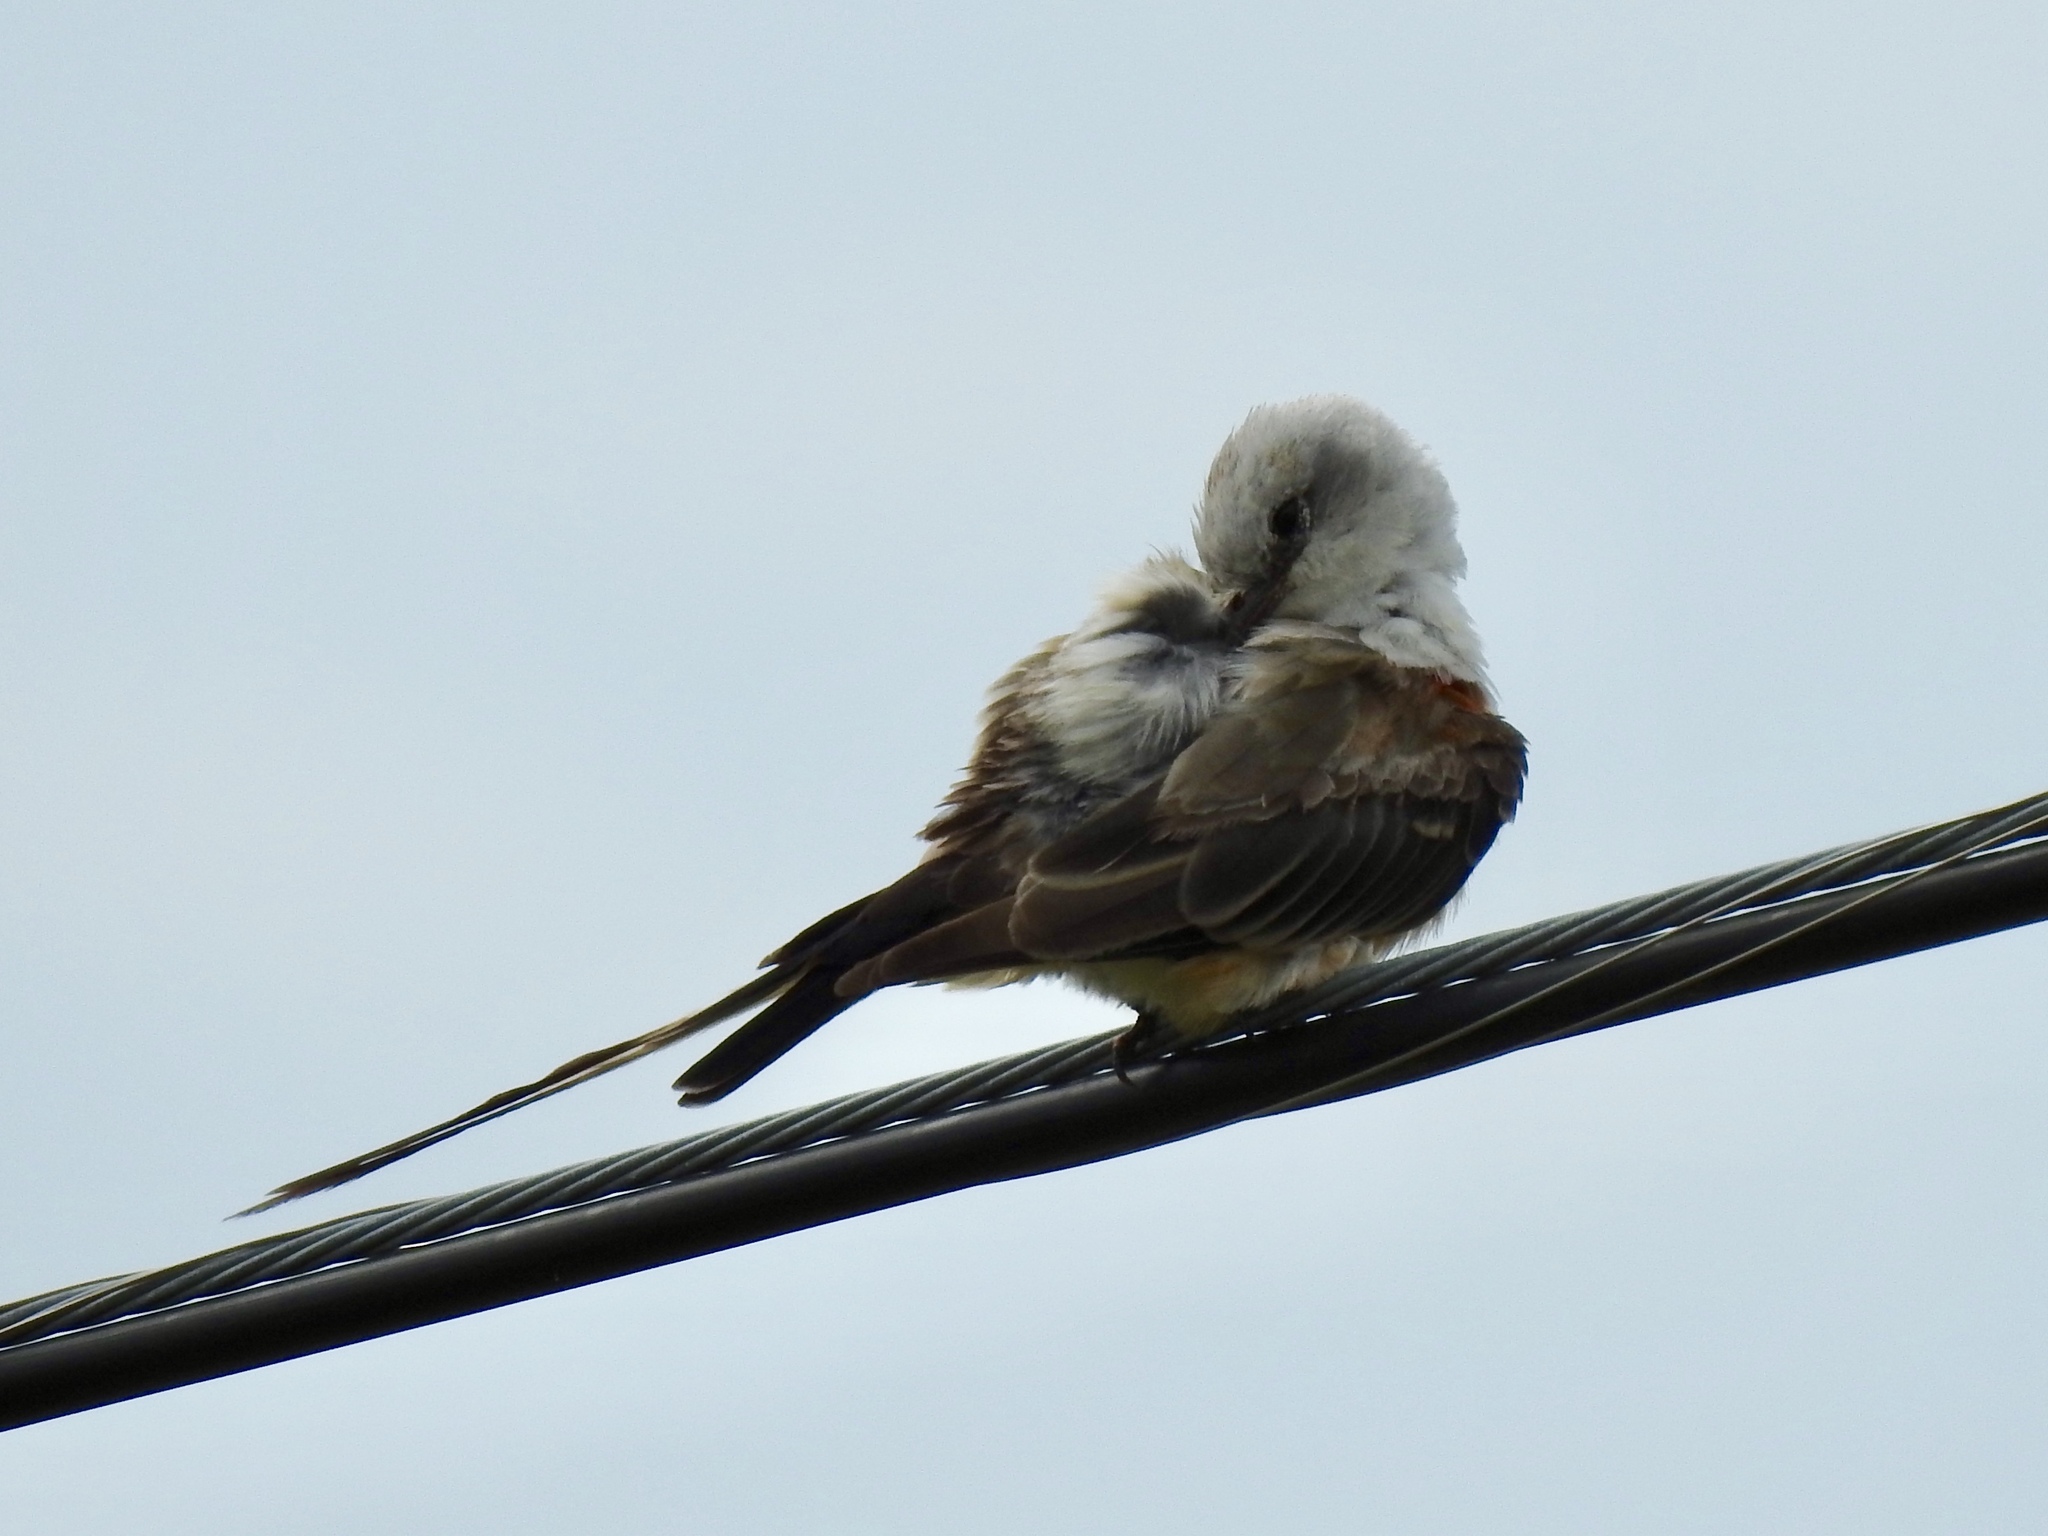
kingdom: Animalia
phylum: Chordata
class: Aves
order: Passeriformes
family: Tyrannidae
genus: Tyrannus
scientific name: Tyrannus forficatus
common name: Scissor-tailed flycatcher
